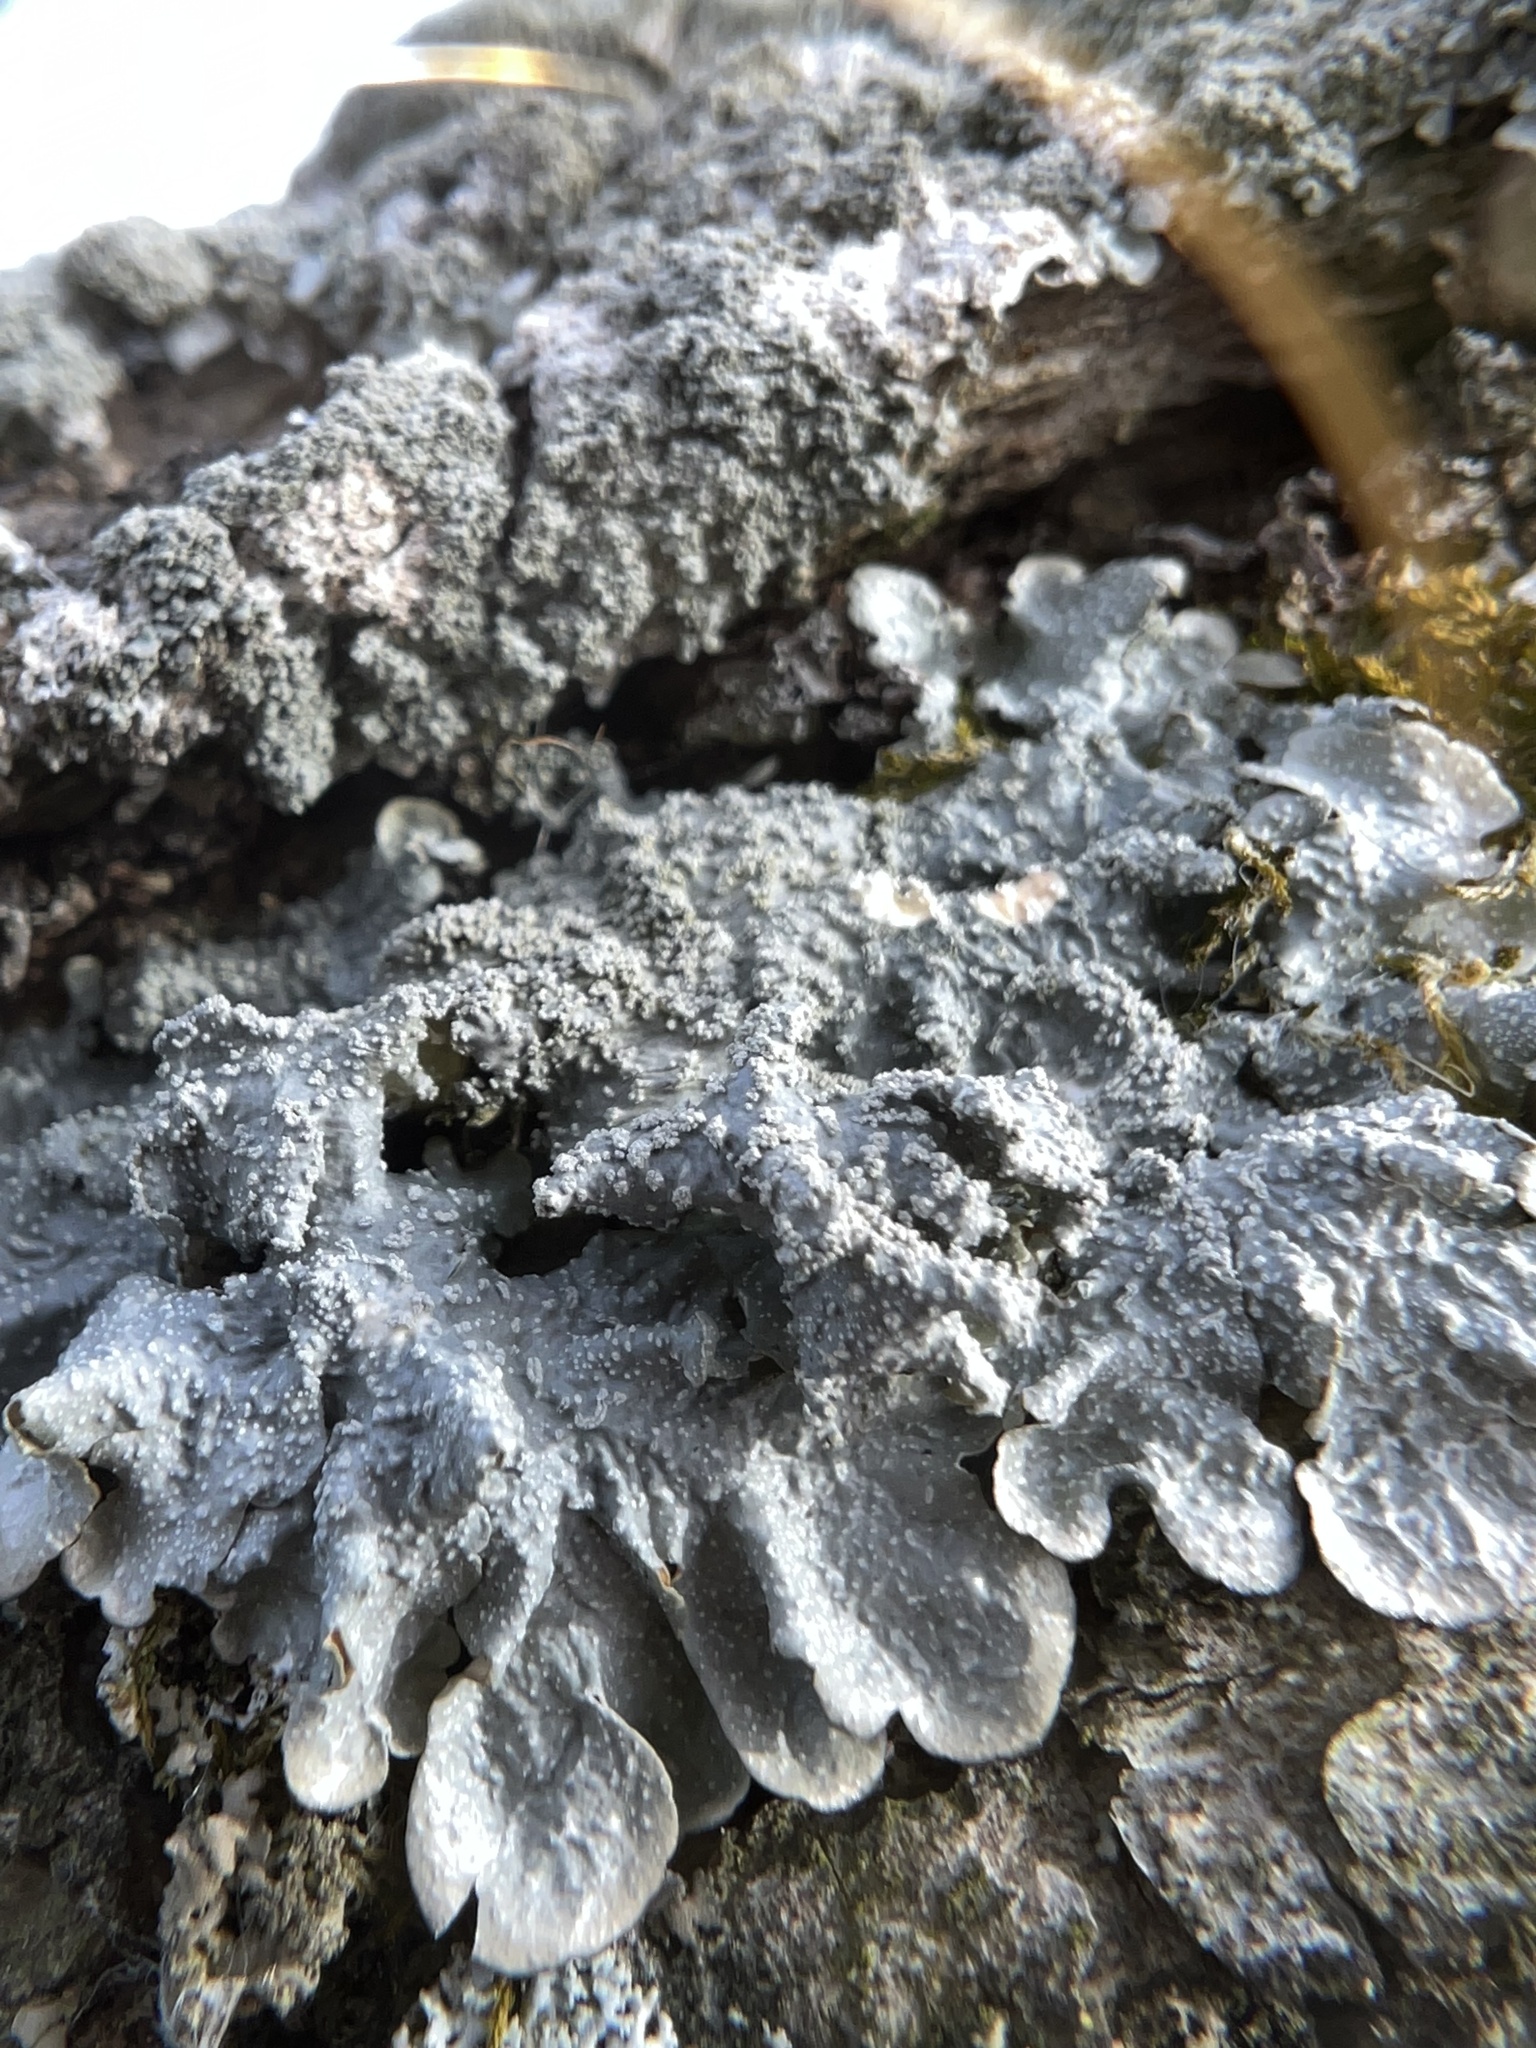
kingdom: Fungi
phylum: Ascomycota
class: Lecanoromycetes
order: Lecanorales
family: Parmeliaceae
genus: Punctelia
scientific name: Punctelia missouriensis
